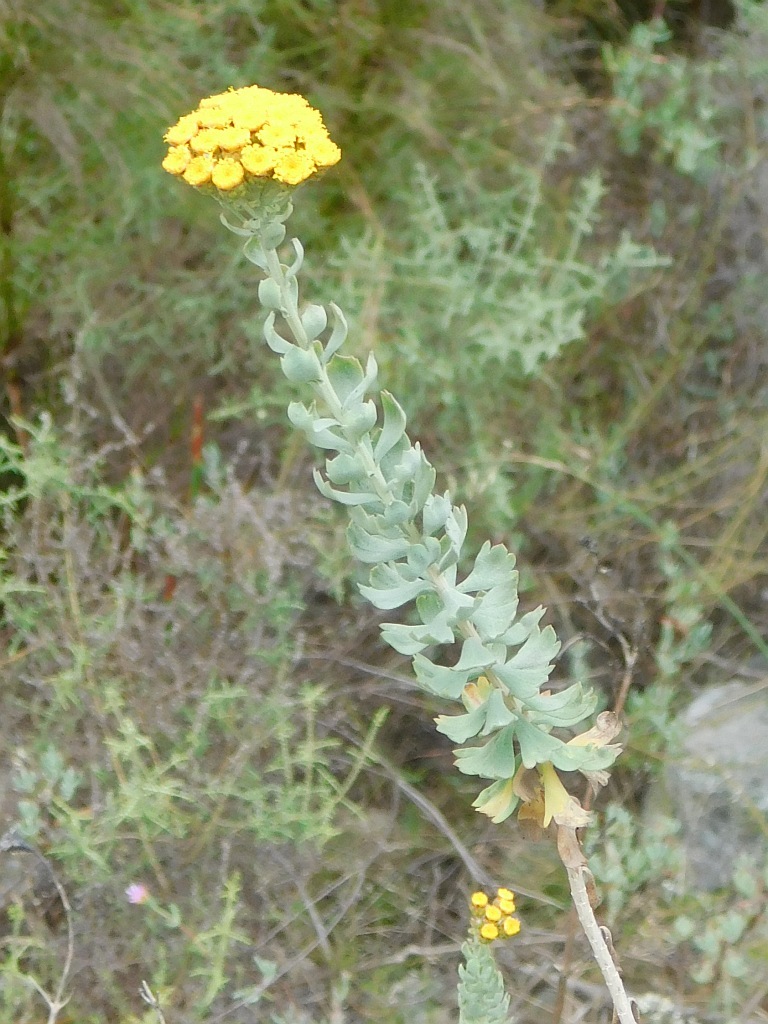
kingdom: Plantae
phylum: Tracheophyta
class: Magnoliopsida
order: Asterales
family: Asteraceae
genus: Athanasia
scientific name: Athanasia trifurcata
